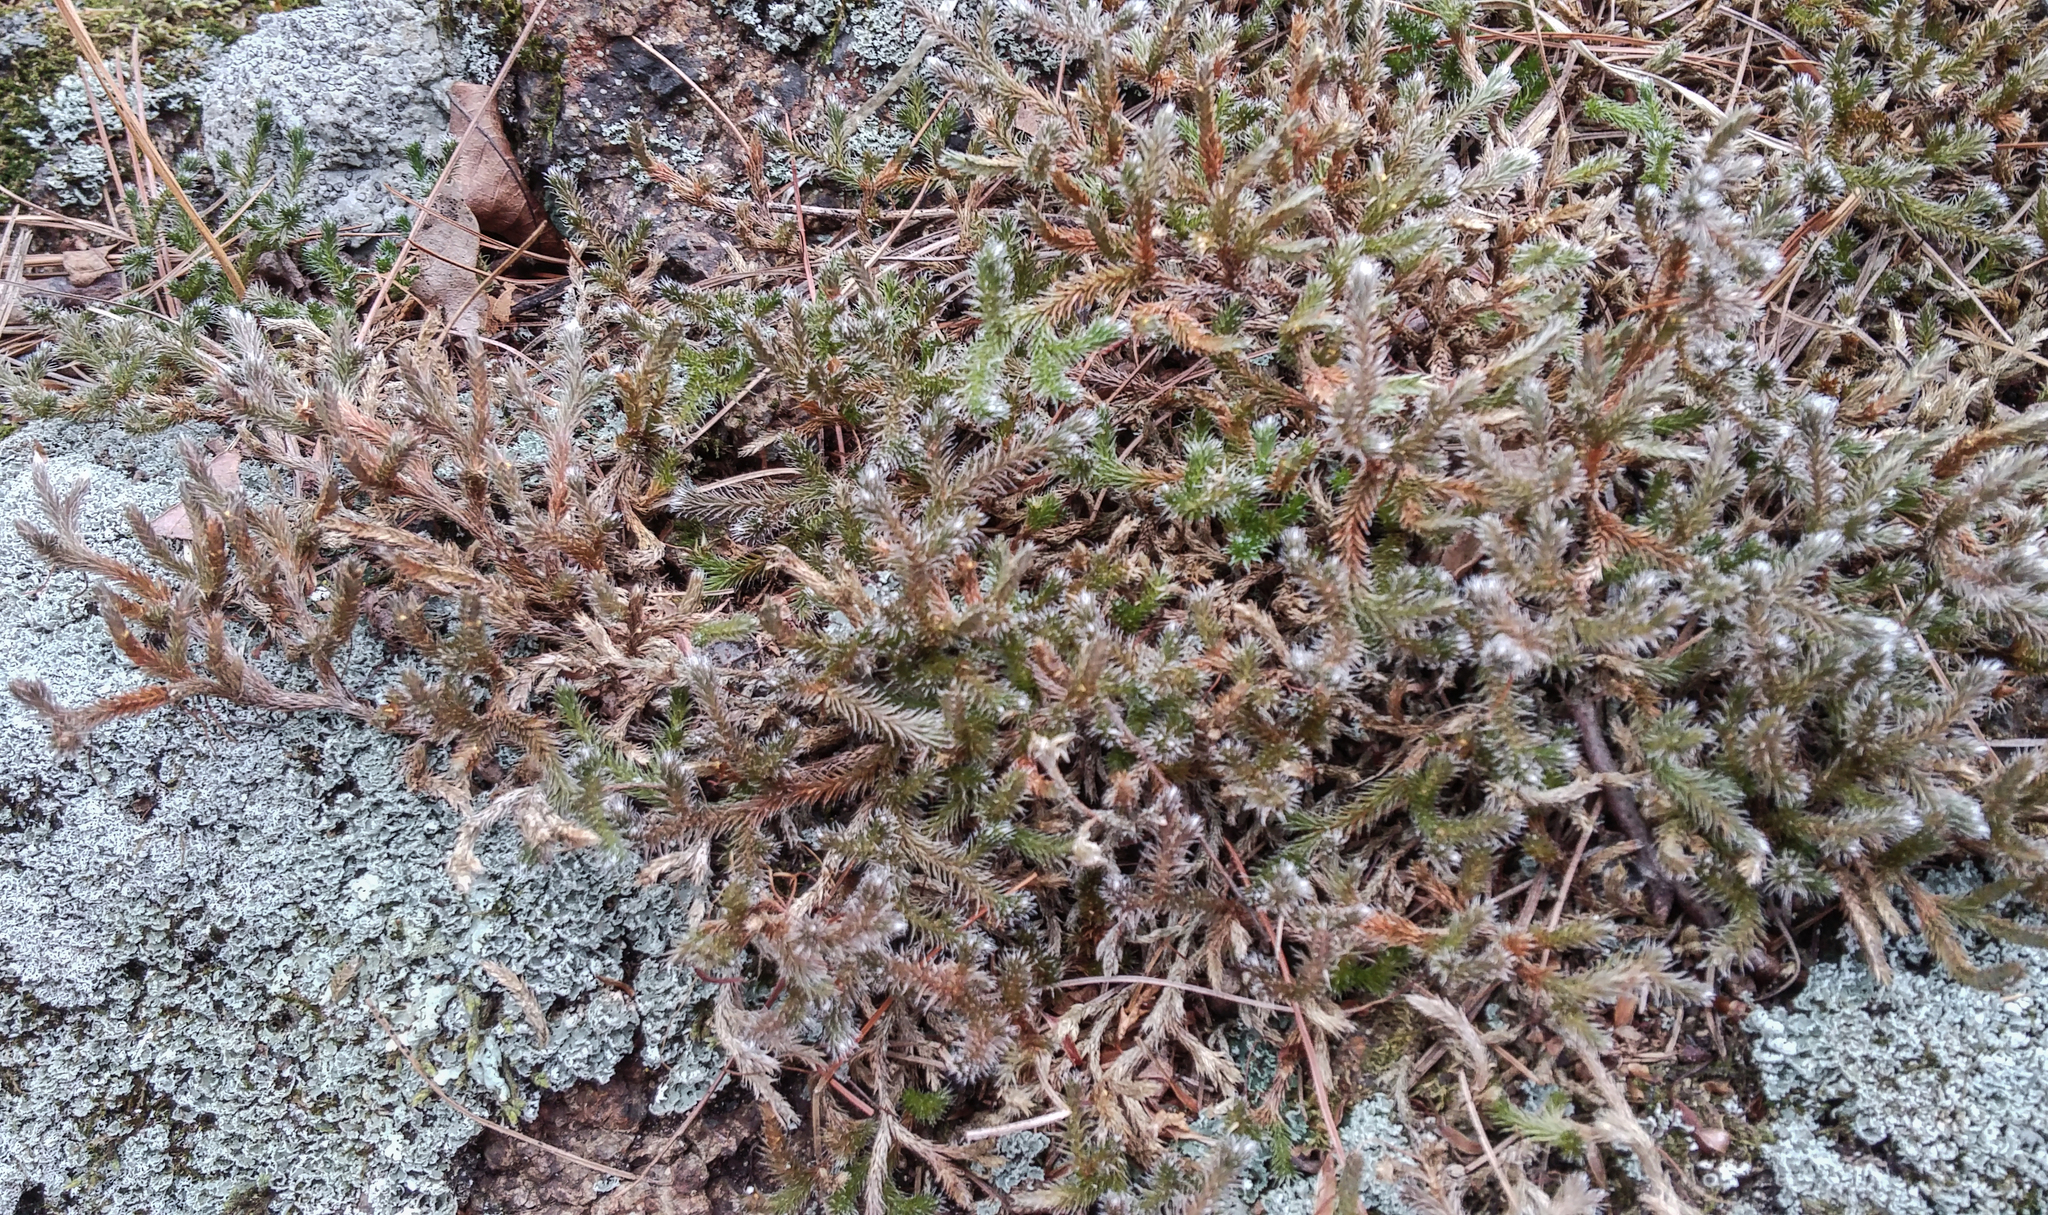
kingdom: Plantae
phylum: Tracheophyta
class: Lycopodiopsida
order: Selaginellales
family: Selaginellaceae
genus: Selaginella
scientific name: Selaginella rupestris
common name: Dwarf spikemoss
